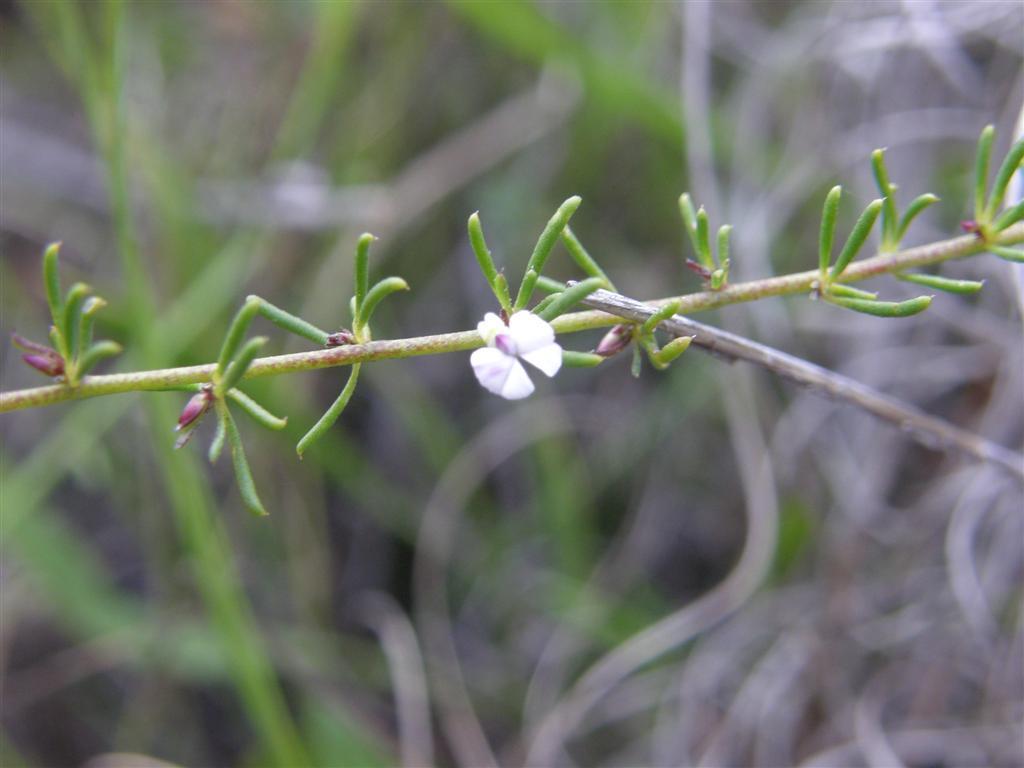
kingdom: Plantae
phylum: Tracheophyta
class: Magnoliopsida
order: Fabales
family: Polygalaceae
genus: Muraltia
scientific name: Muraltia ericoides
